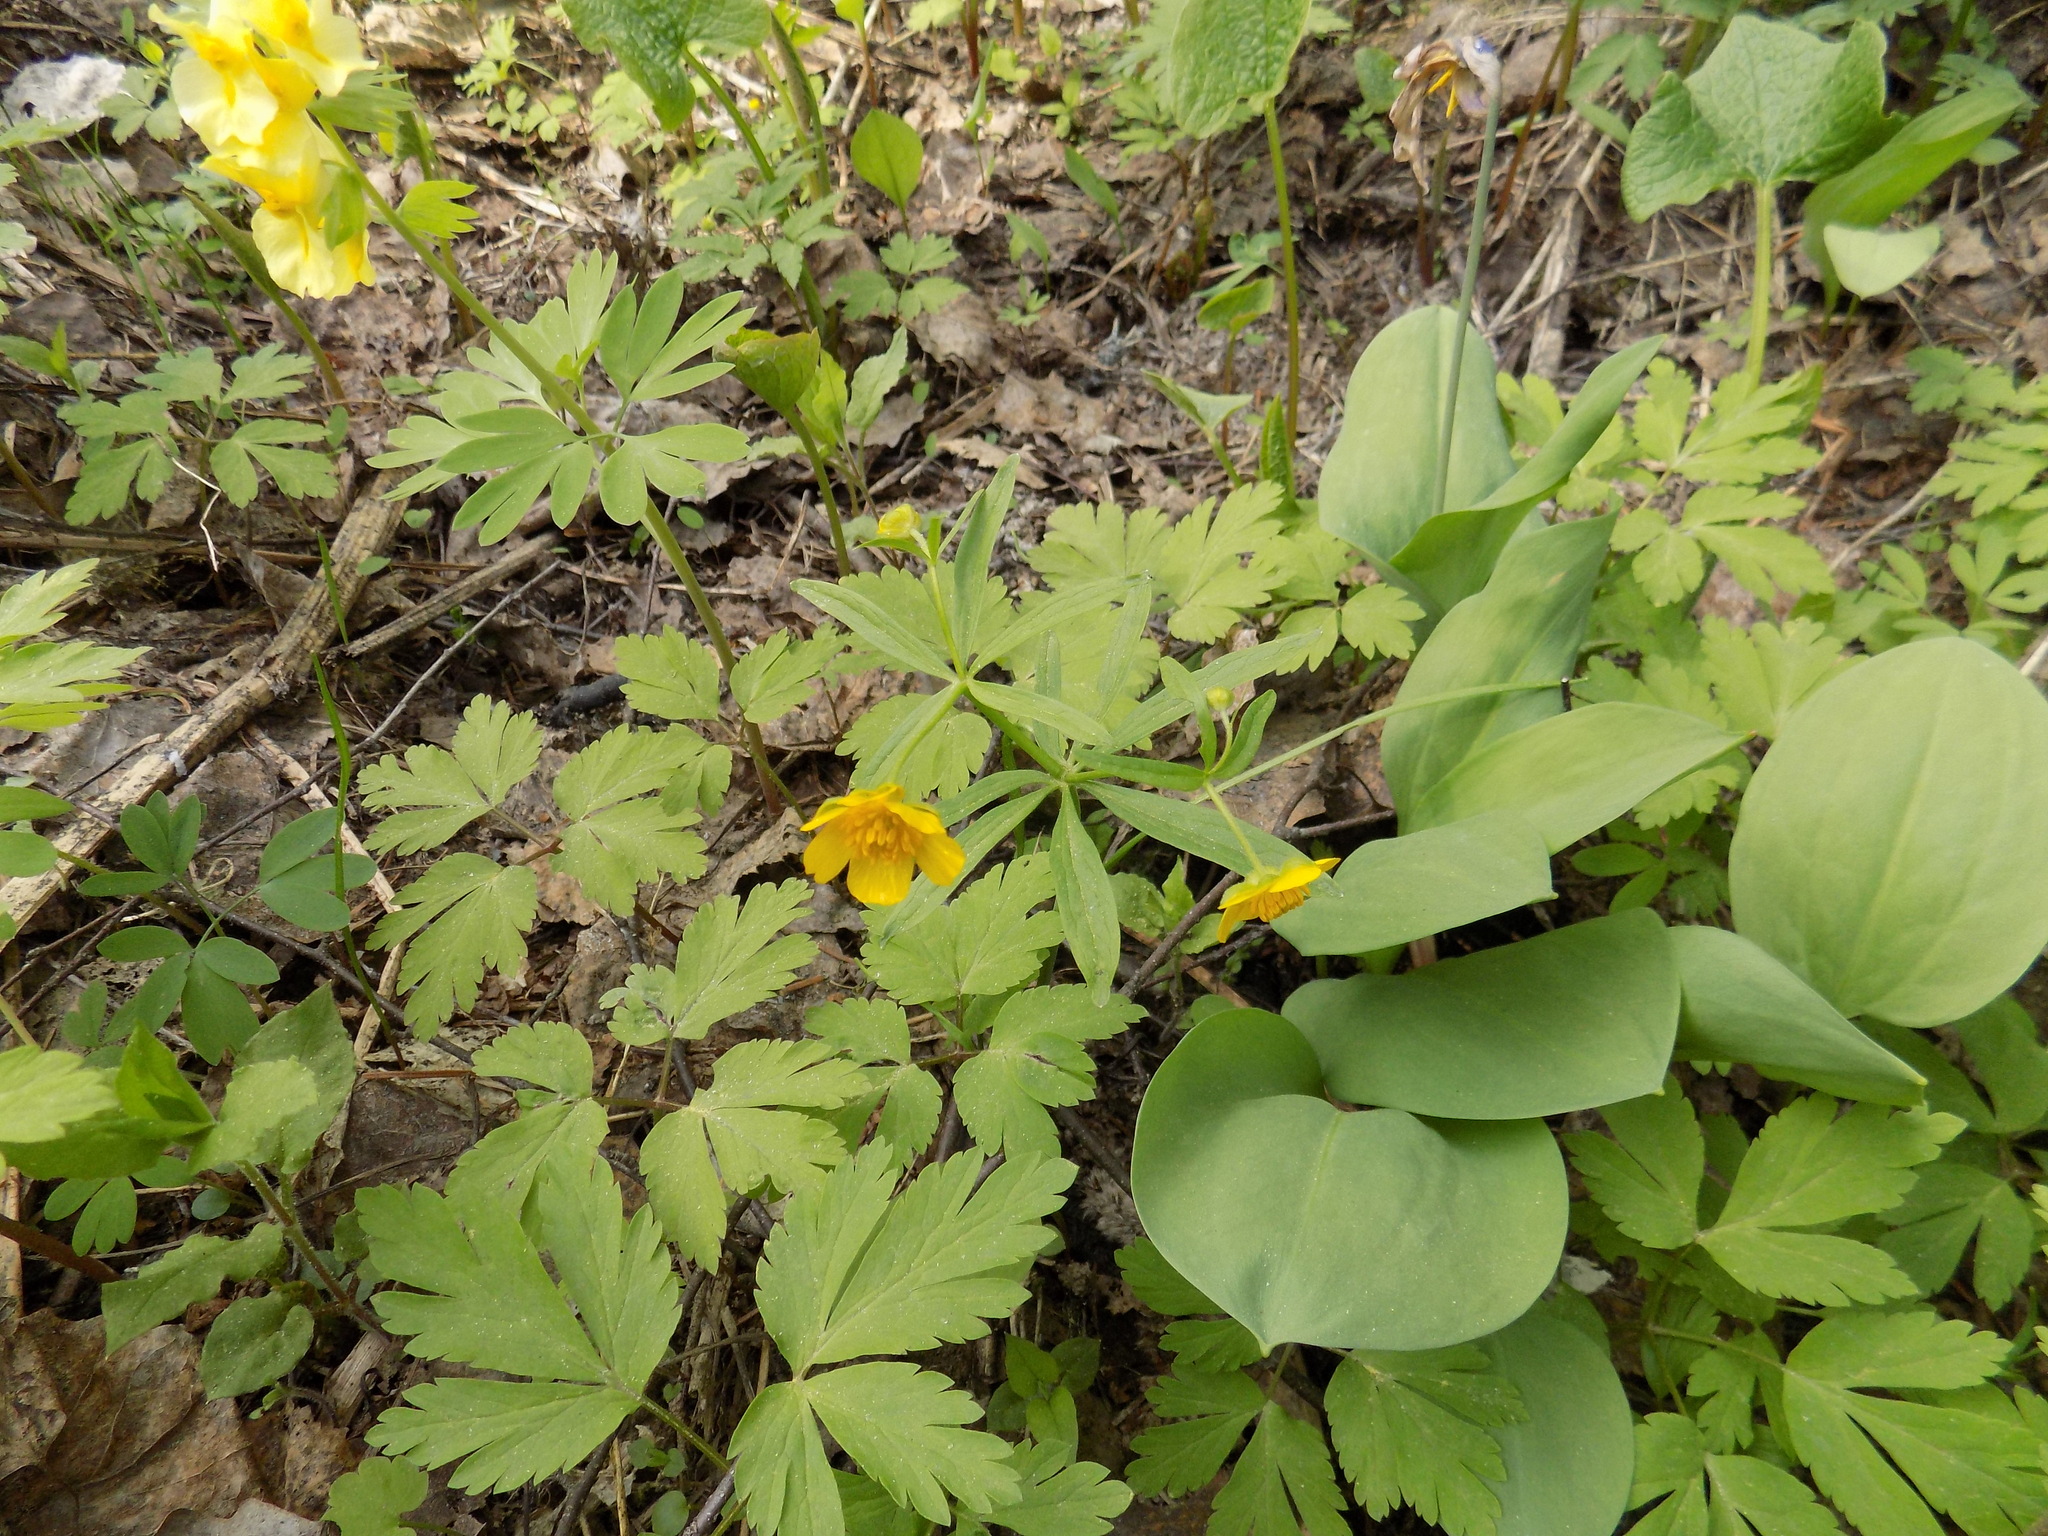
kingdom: Plantae
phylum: Tracheophyta
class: Magnoliopsida
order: Ranunculales
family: Ranunculaceae
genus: Ranunculus
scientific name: Ranunculus monophyllus
